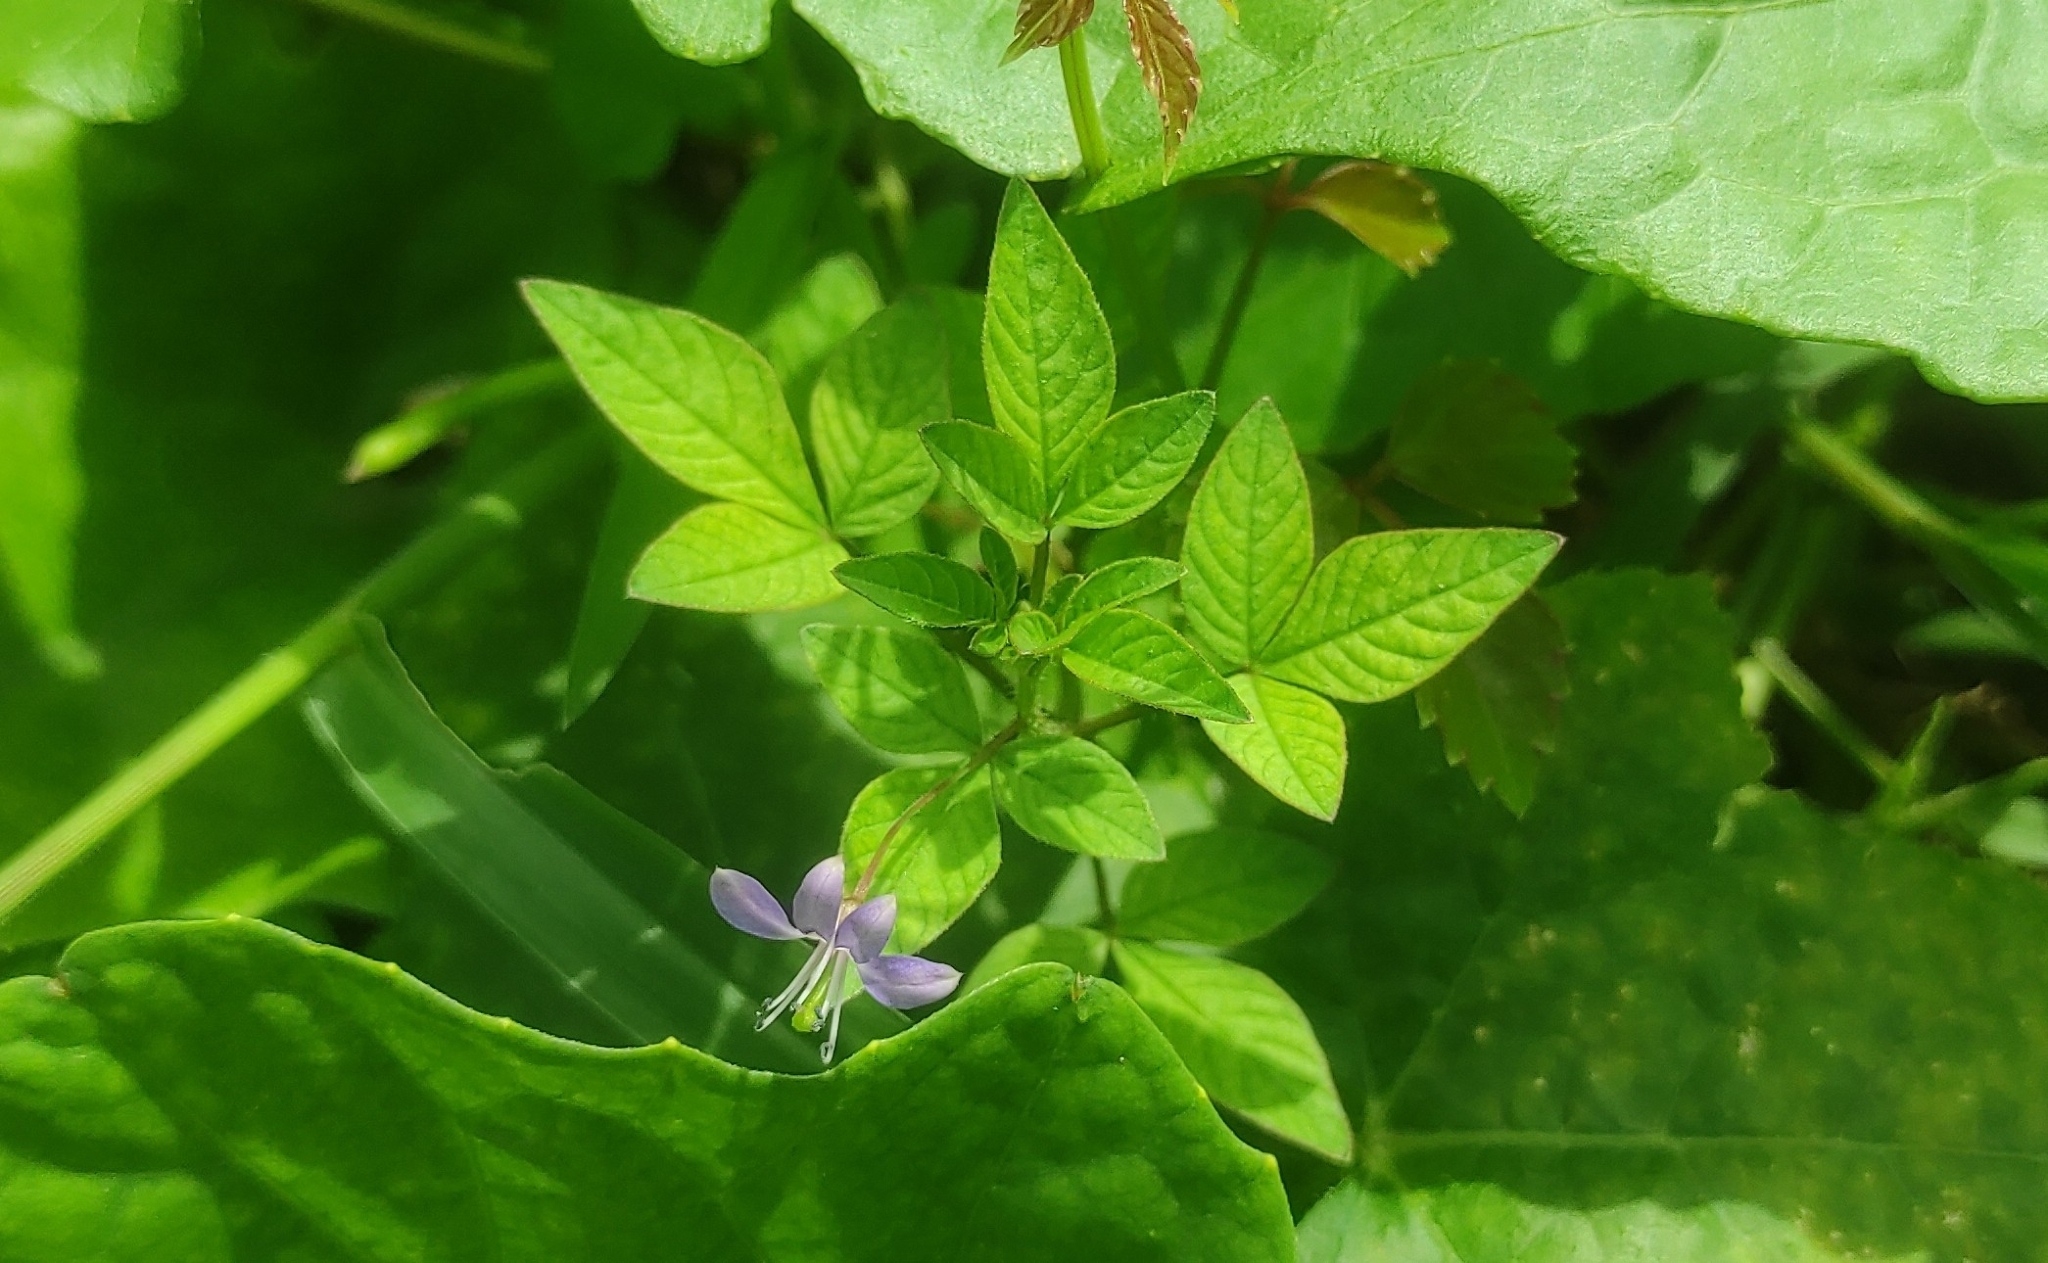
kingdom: Plantae
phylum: Tracheophyta
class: Magnoliopsida
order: Brassicales
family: Cleomaceae
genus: Sieruela
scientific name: Sieruela rutidosperma
